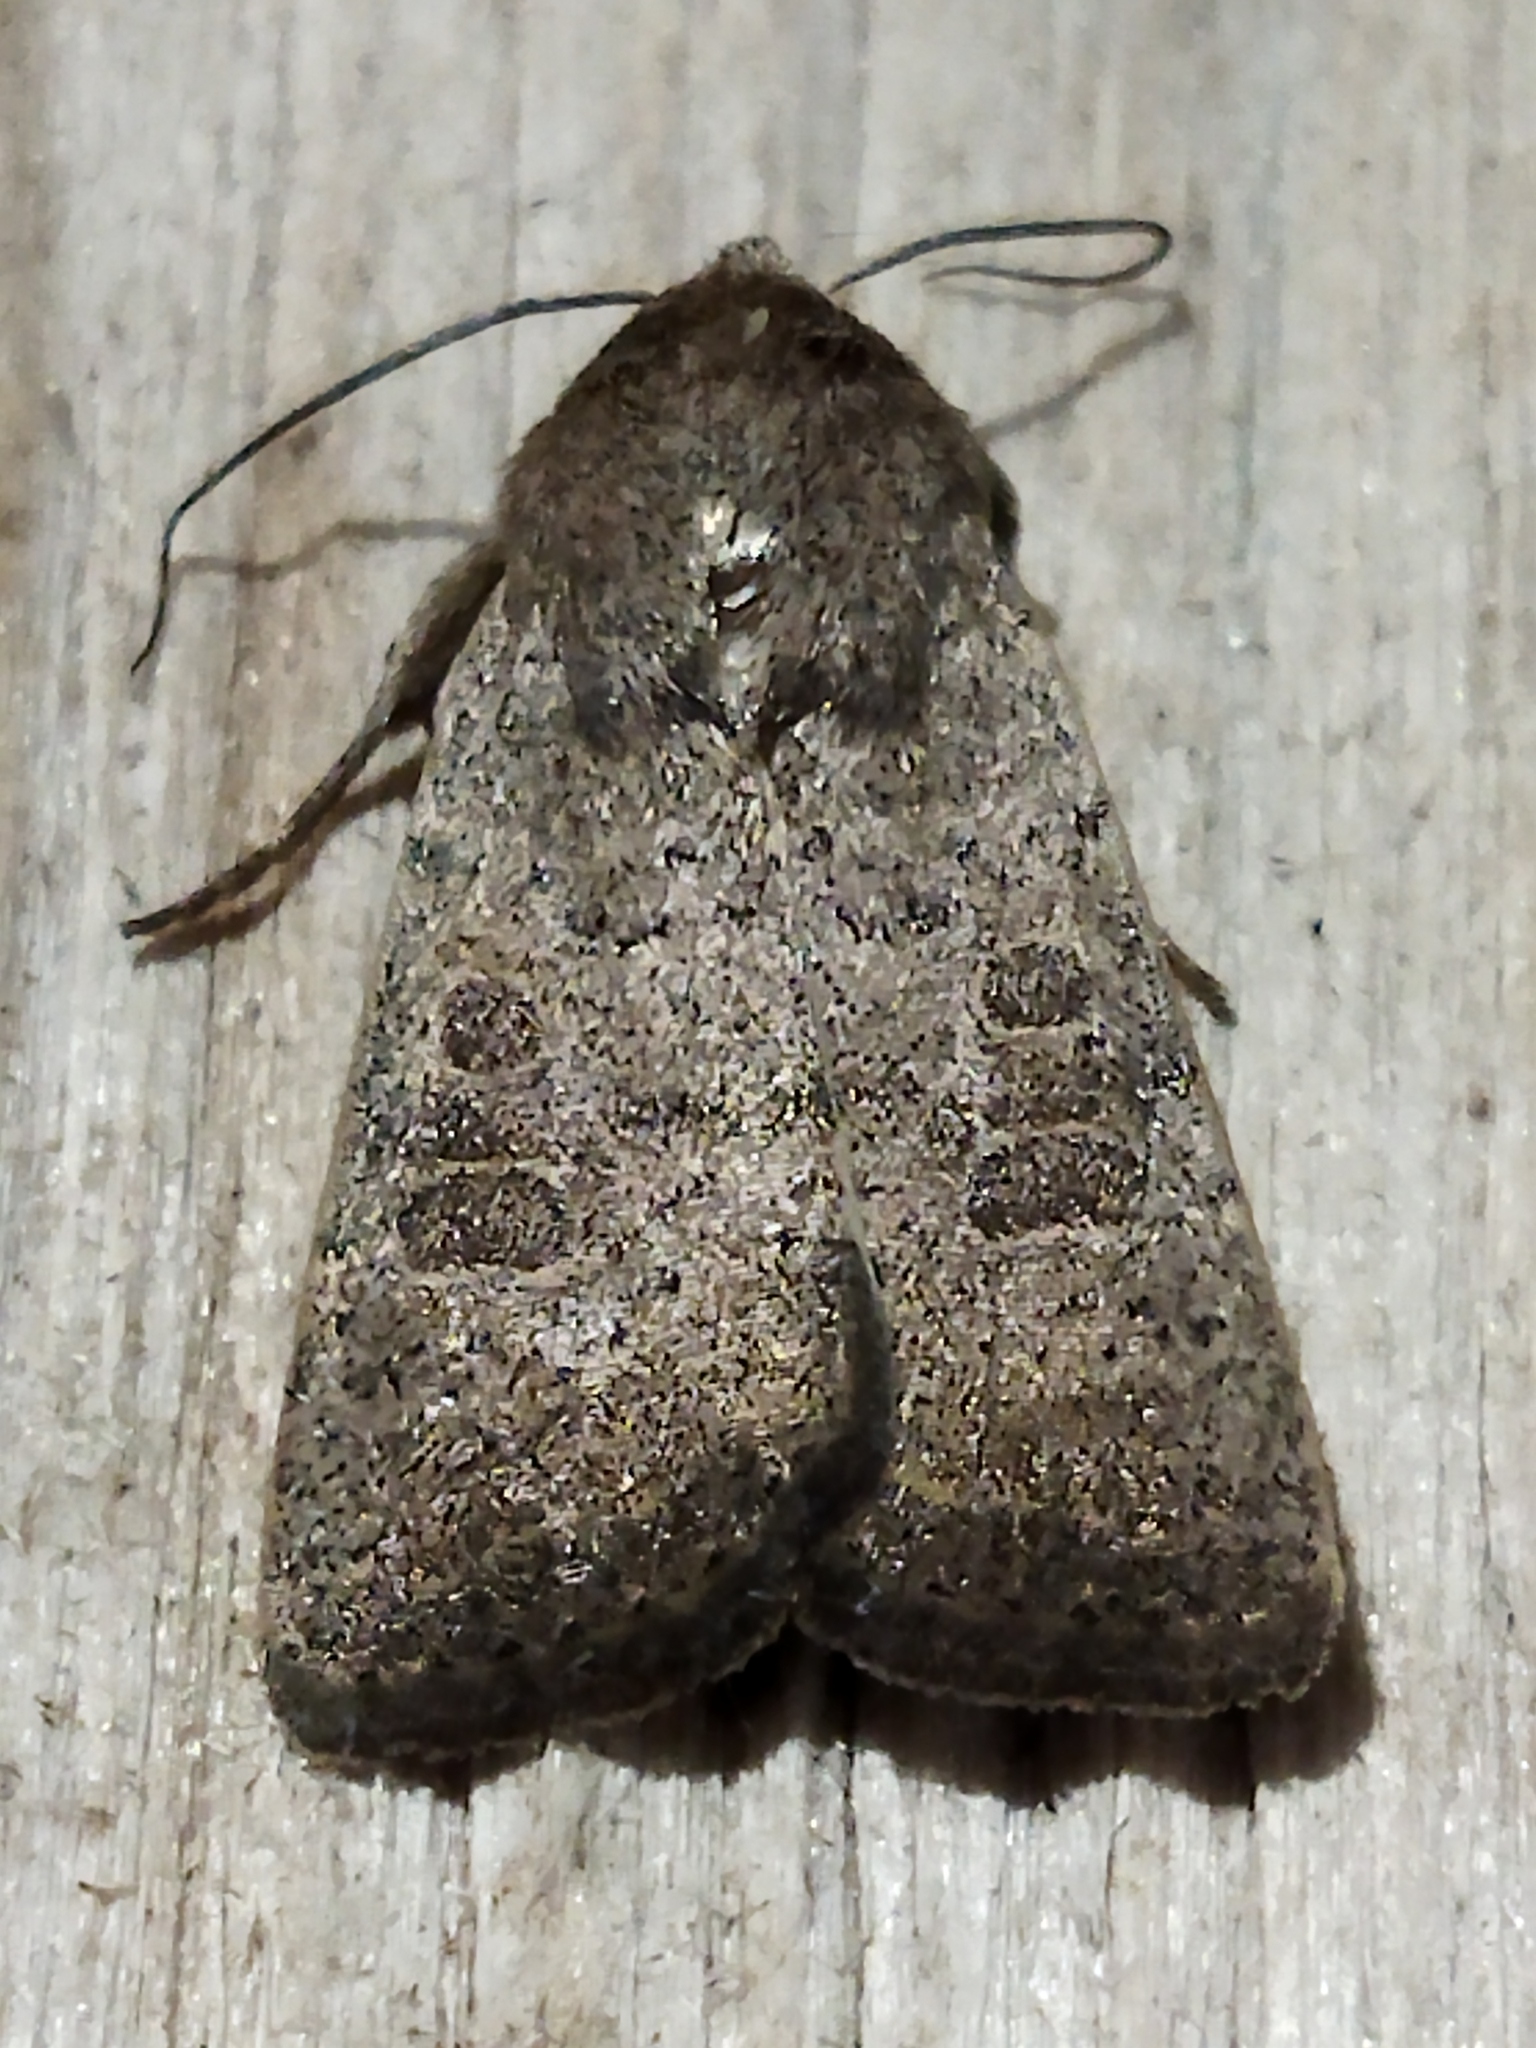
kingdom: Animalia
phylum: Arthropoda
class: Insecta
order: Lepidoptera
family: Noctuidae
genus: Hoplodrina
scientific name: Hoplodrina ambigua
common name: Vine's rustic
